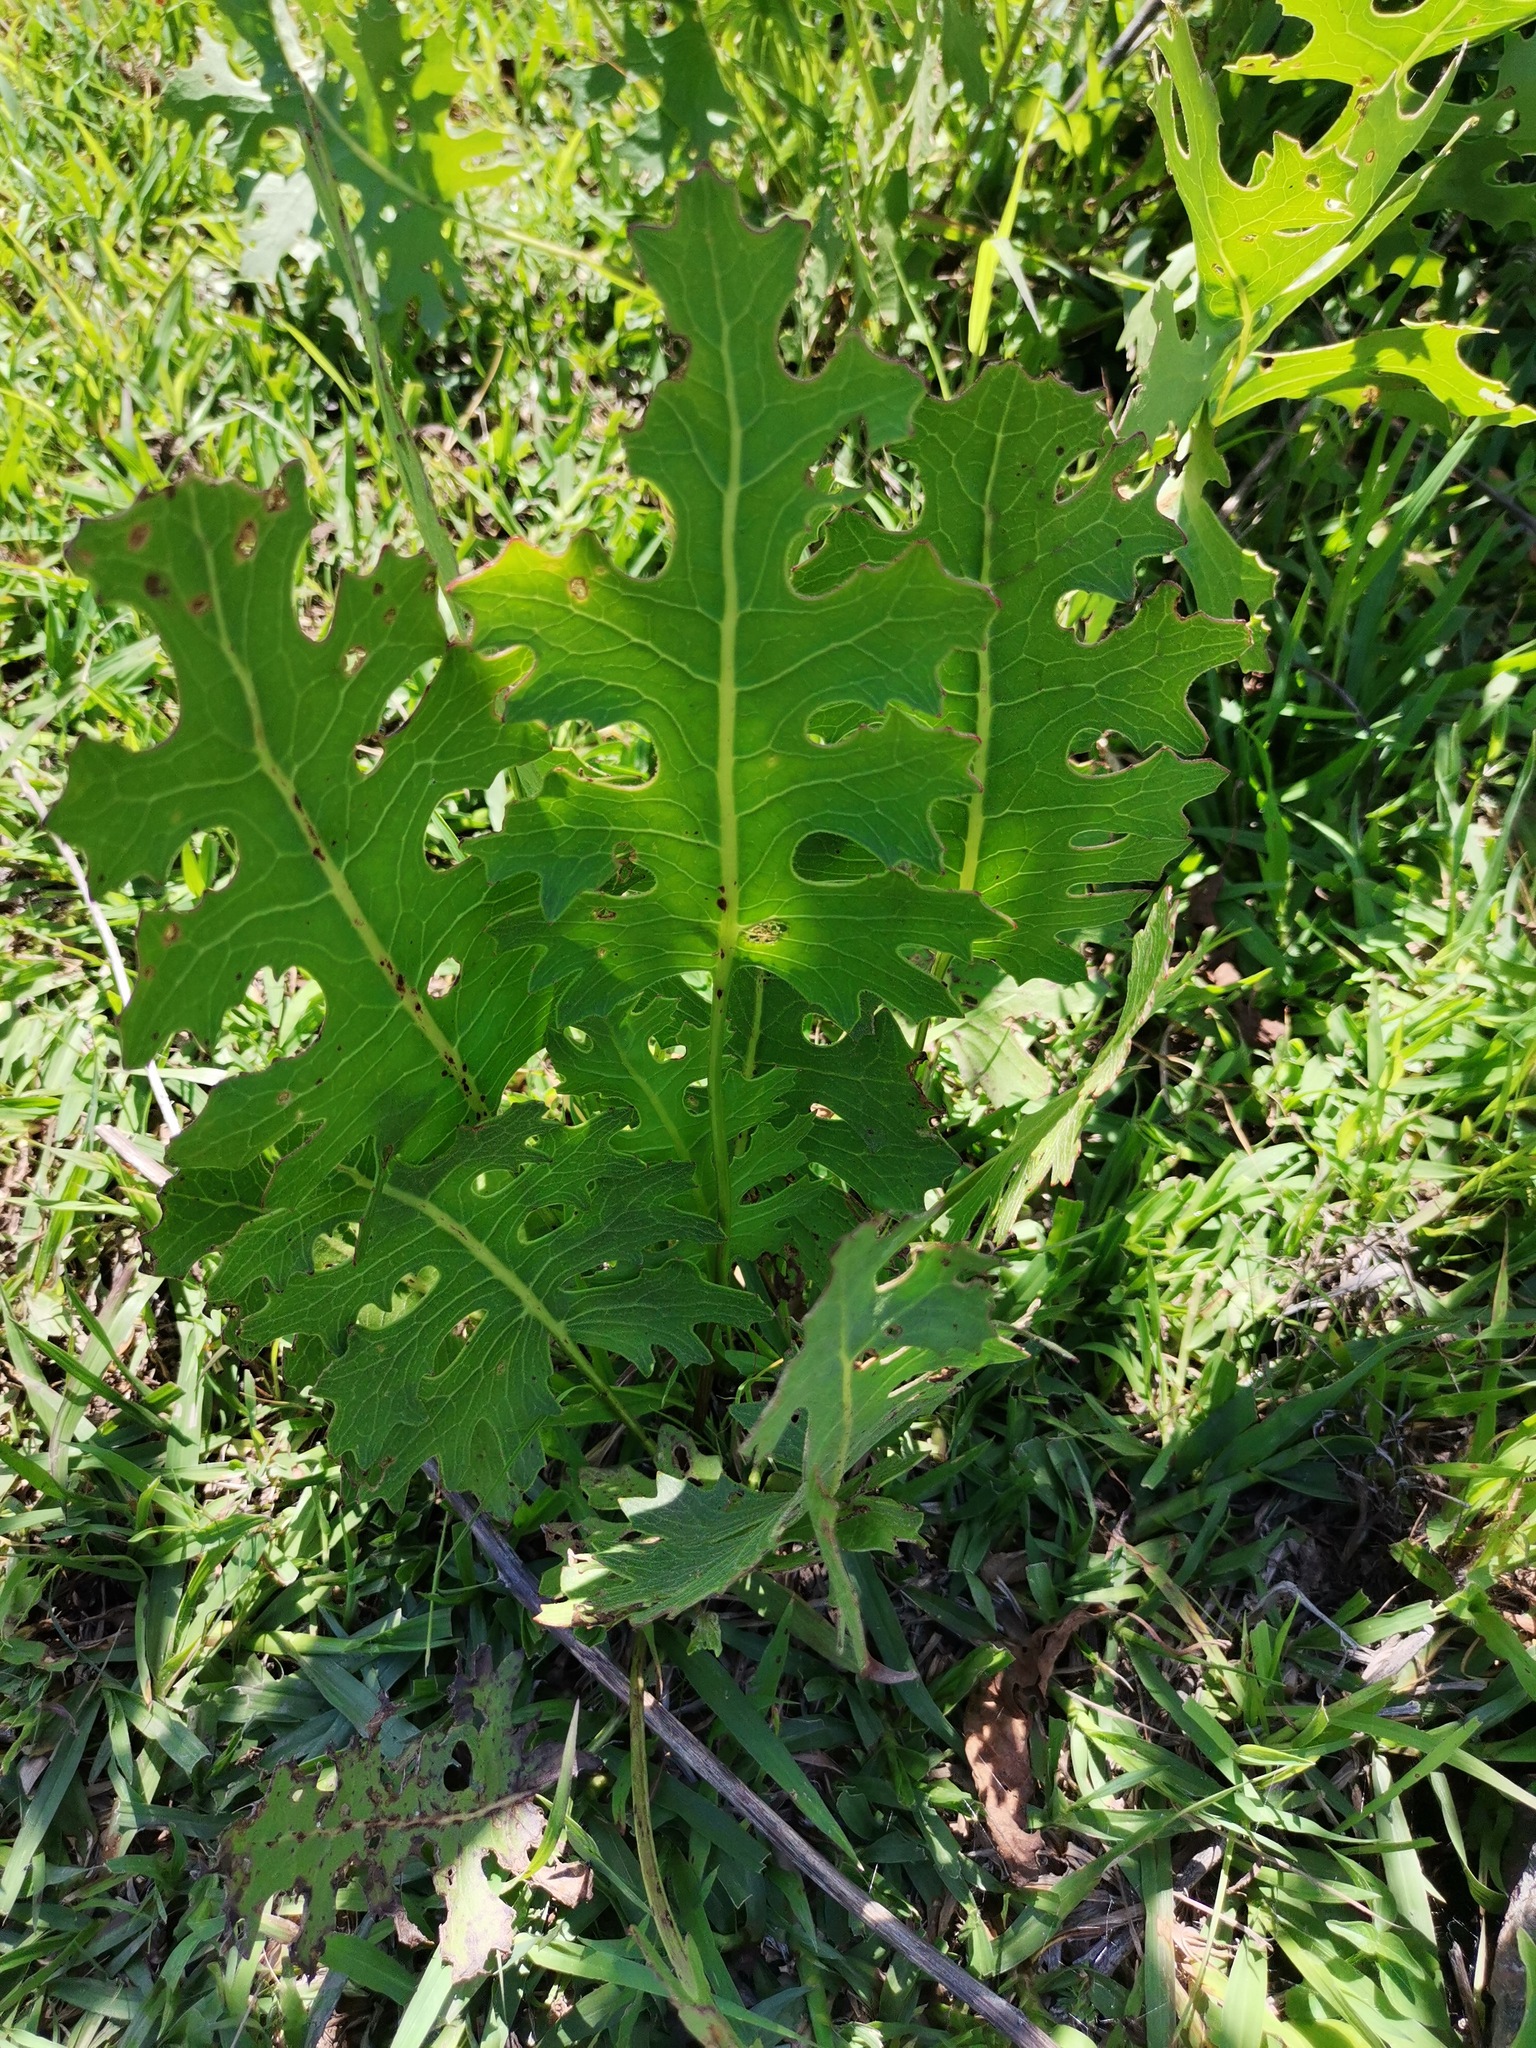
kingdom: Plantae
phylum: Tracheophyta
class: Magnoliopsida
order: Asterales
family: Asteraceae
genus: Psacalium
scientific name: Psacalium sinuatum
